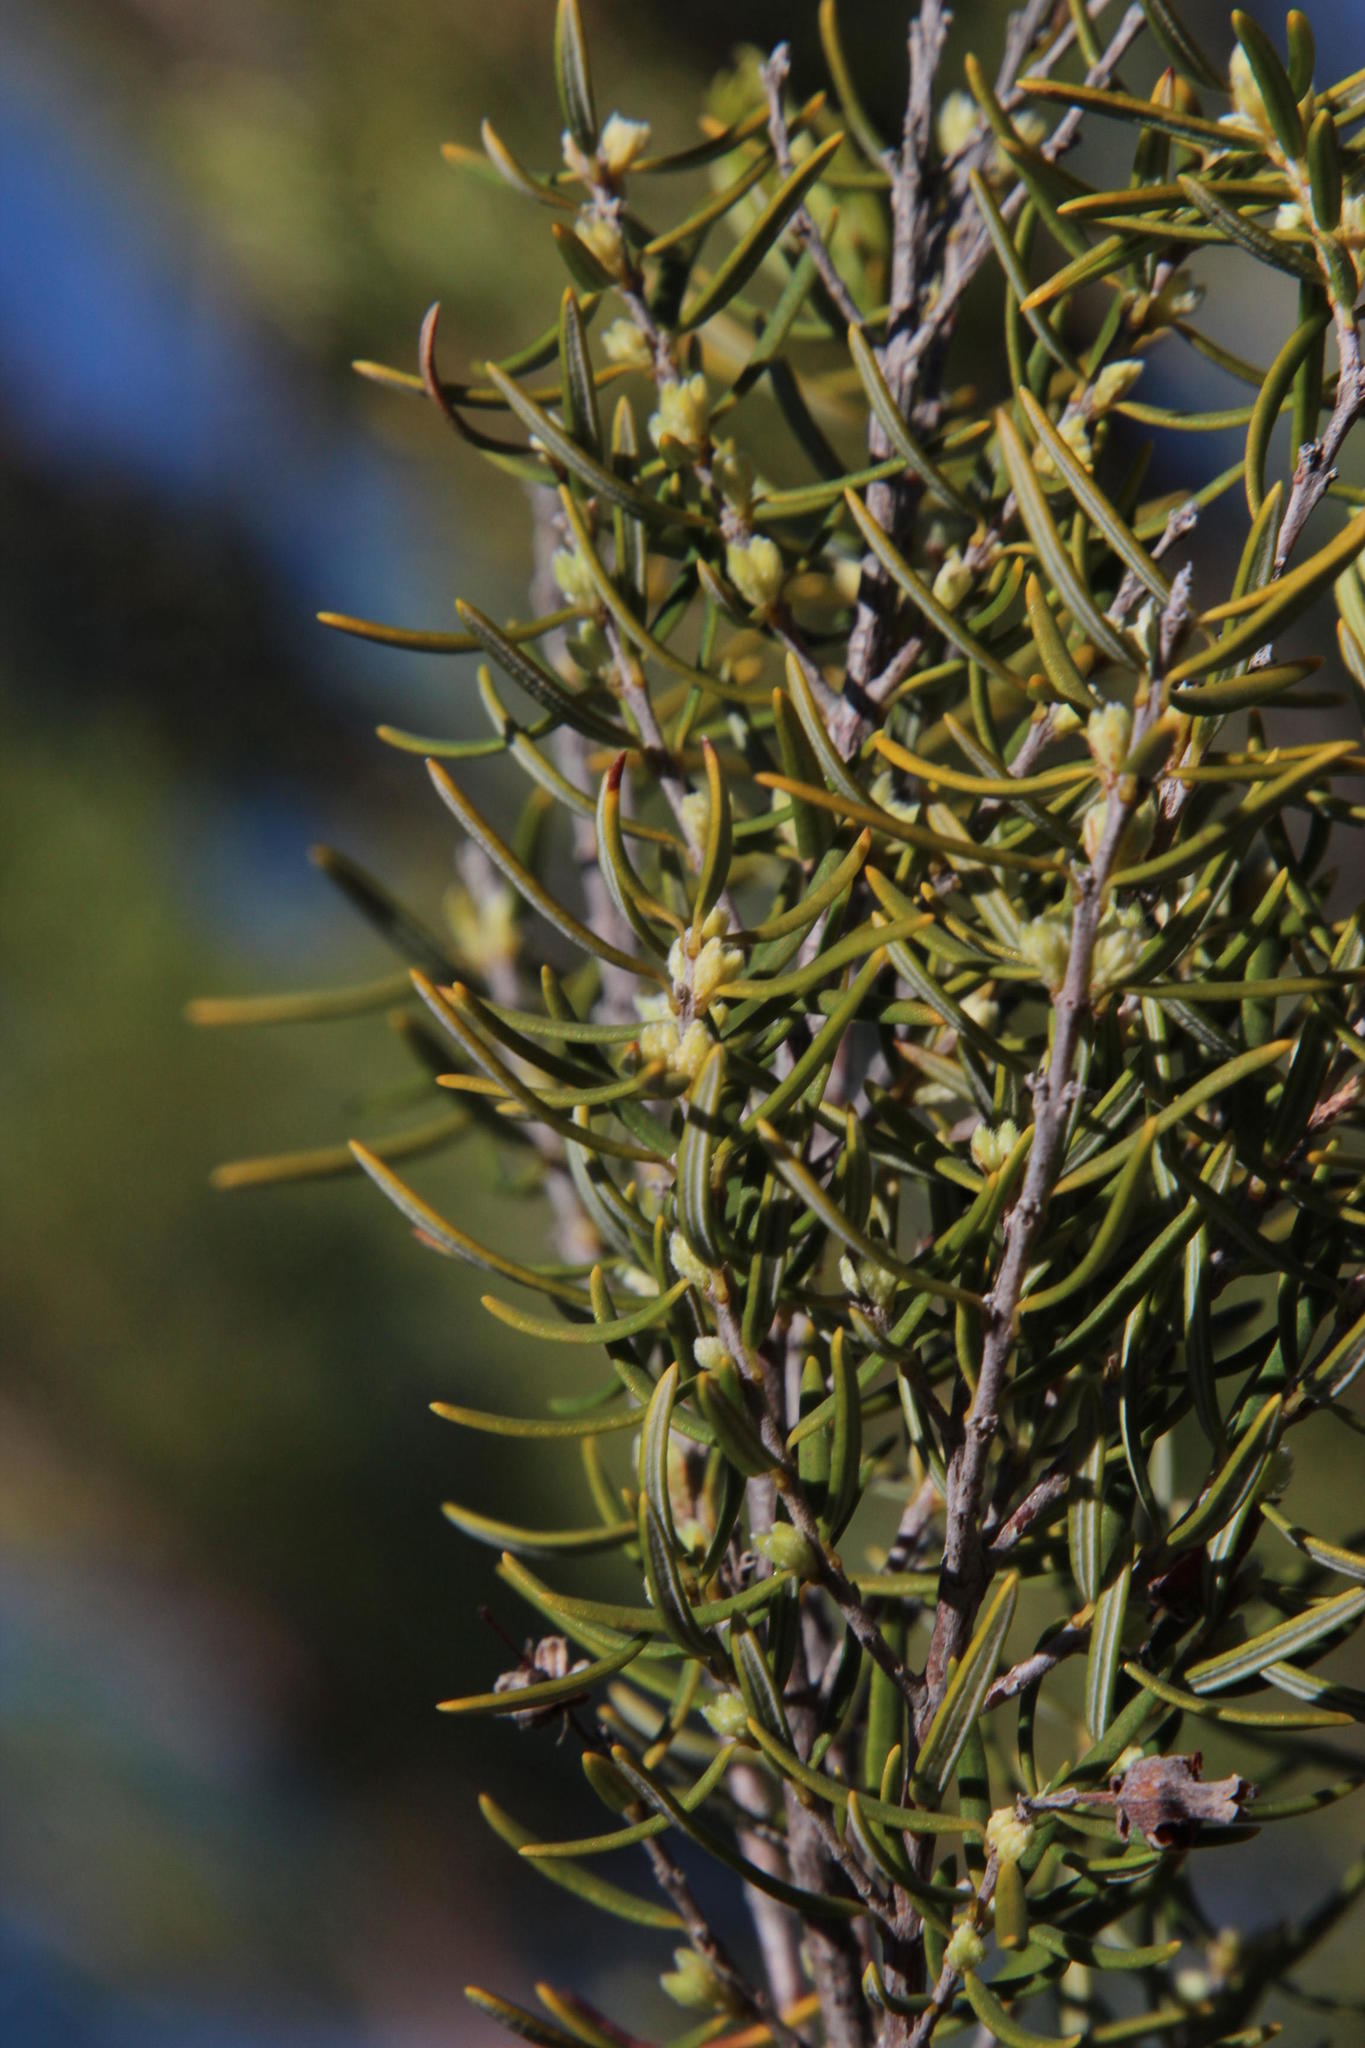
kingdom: Plantae
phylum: Tracheophyta
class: Magnoliopsida
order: Ericales
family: Ericaceae
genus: Erica
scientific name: Erica caffra
